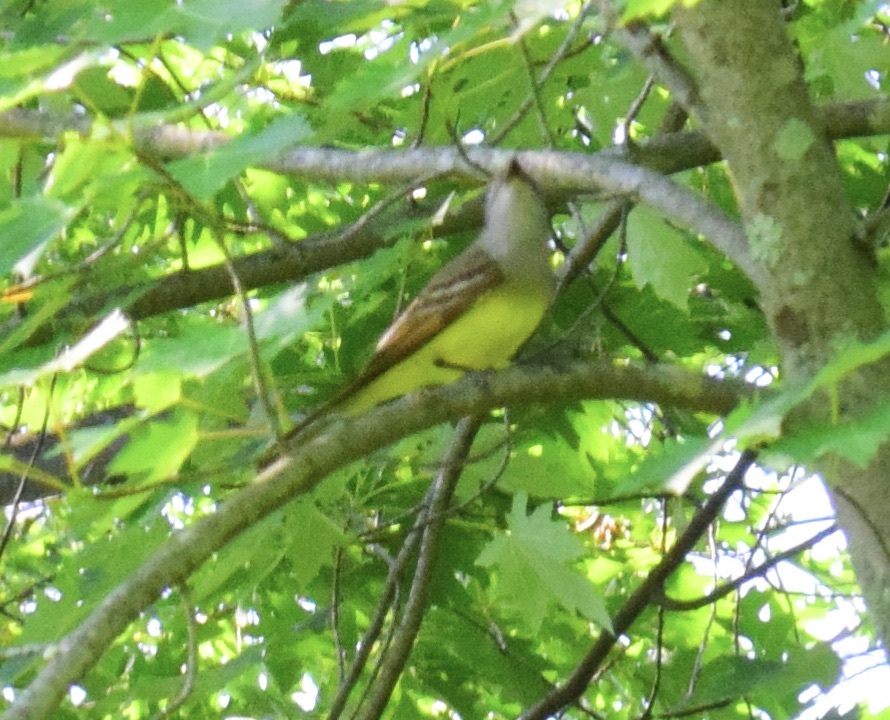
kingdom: Animalia
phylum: Chordata
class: Aves
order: Passeriformes
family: Tyrannidae
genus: Myiarchus
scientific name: Myiarchus crinitus
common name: Great crested flycatcher
